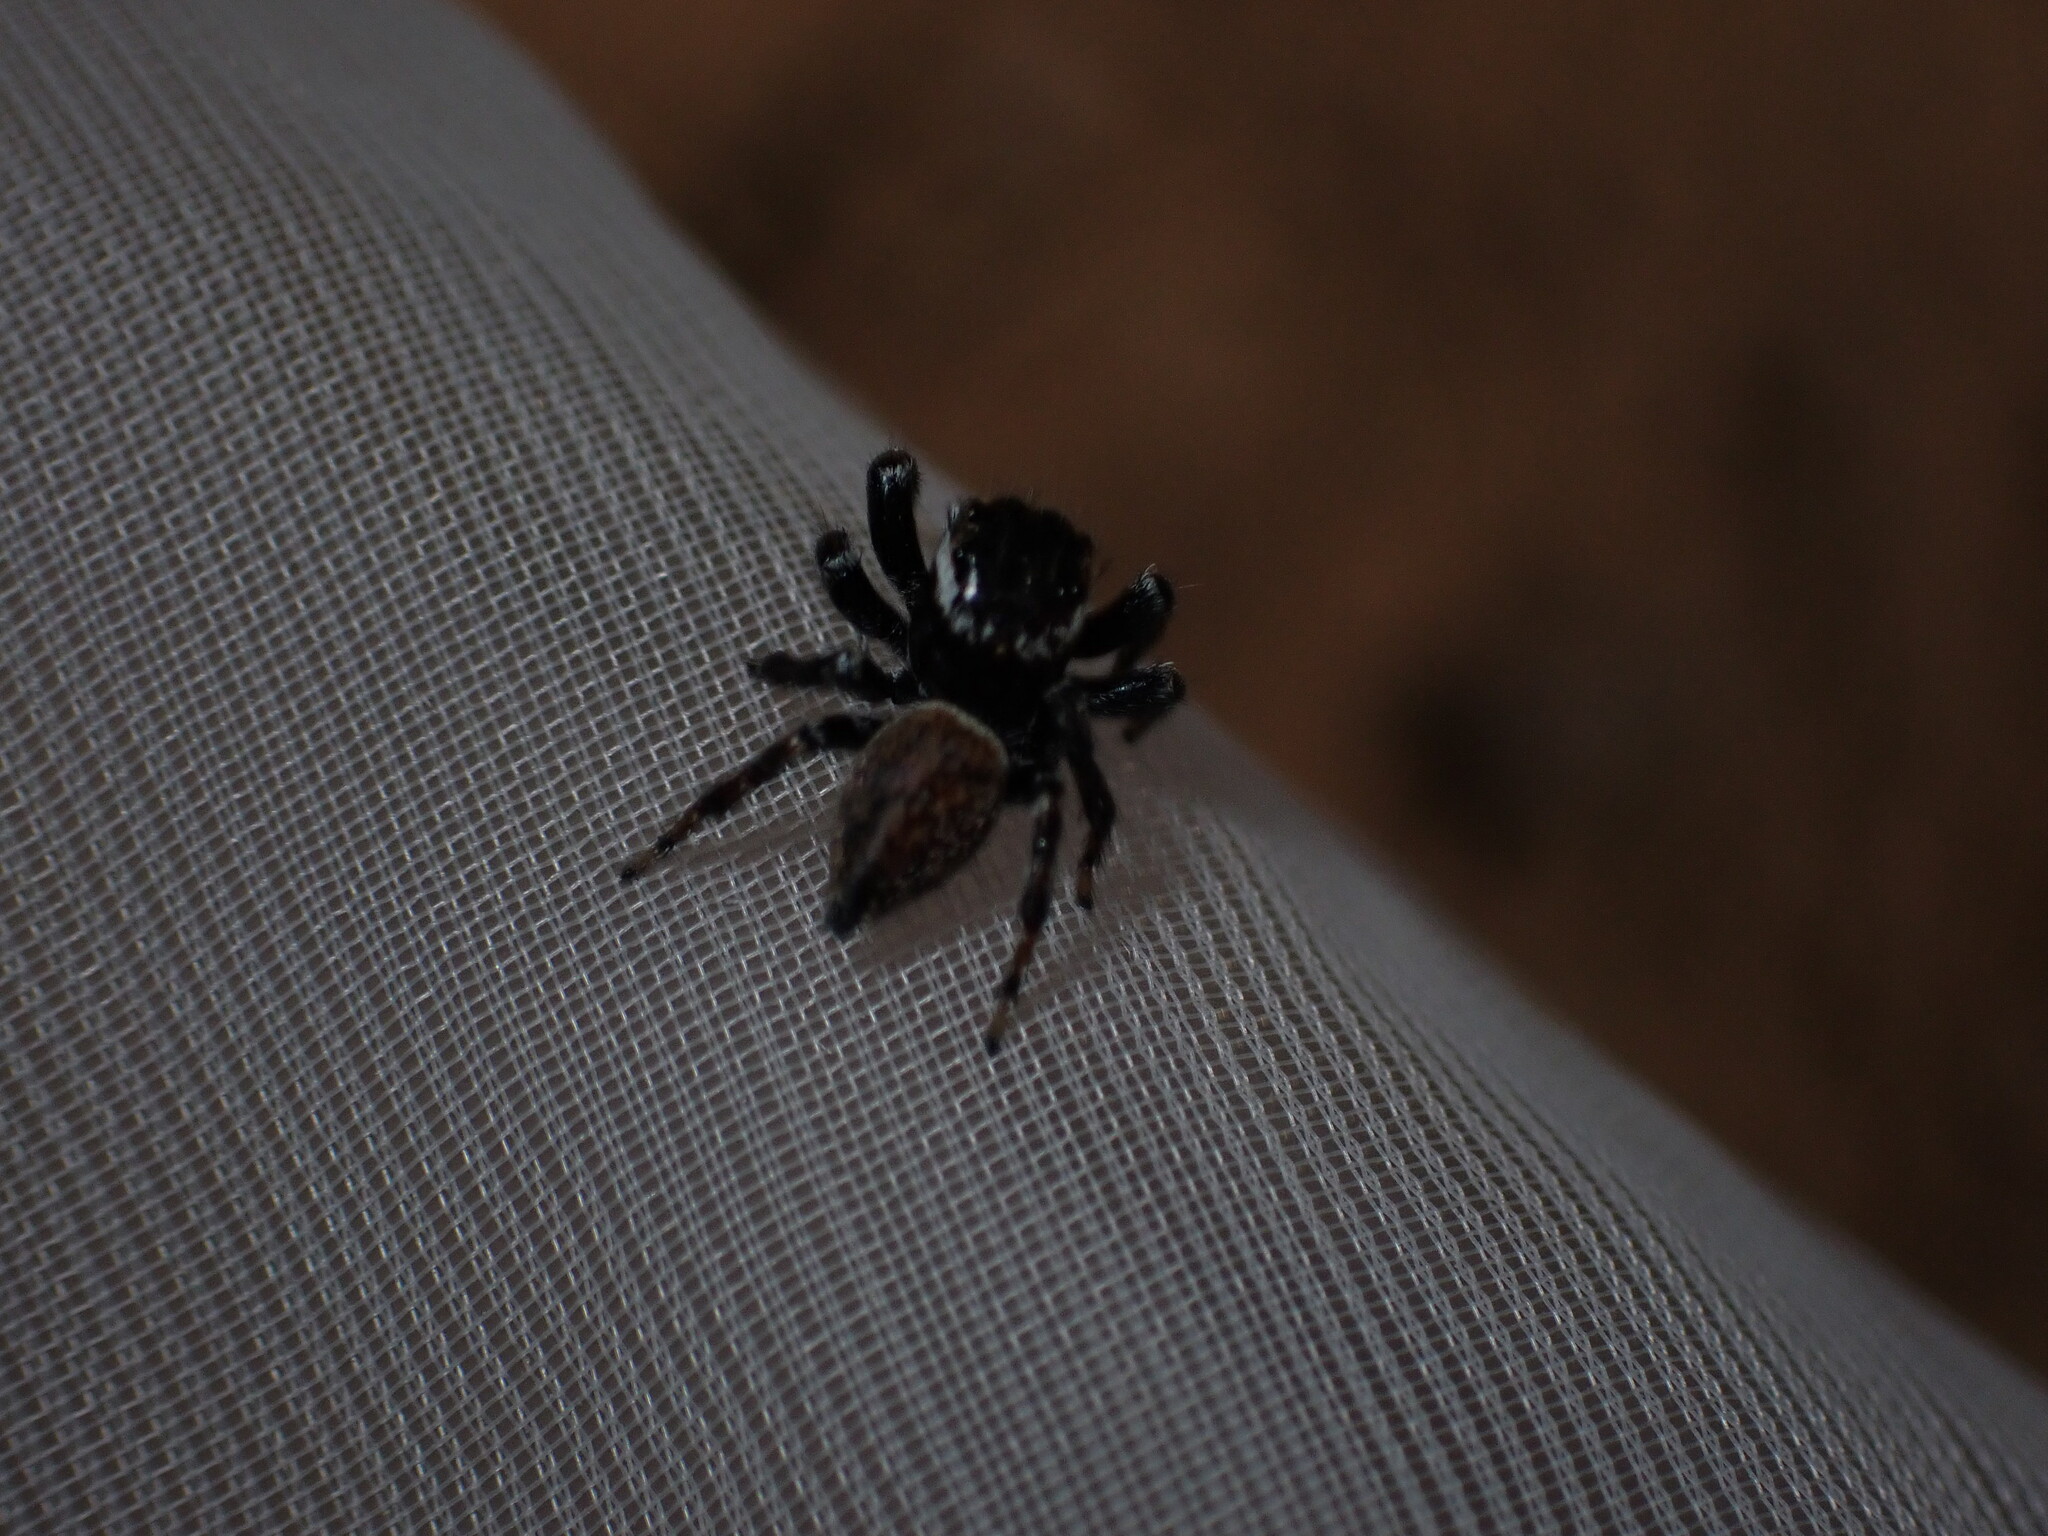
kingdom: Animalia
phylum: Arthropoda
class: Arachnida
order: Araneae
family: Salticidae
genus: Evarcha
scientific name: Evarcha jucunda
